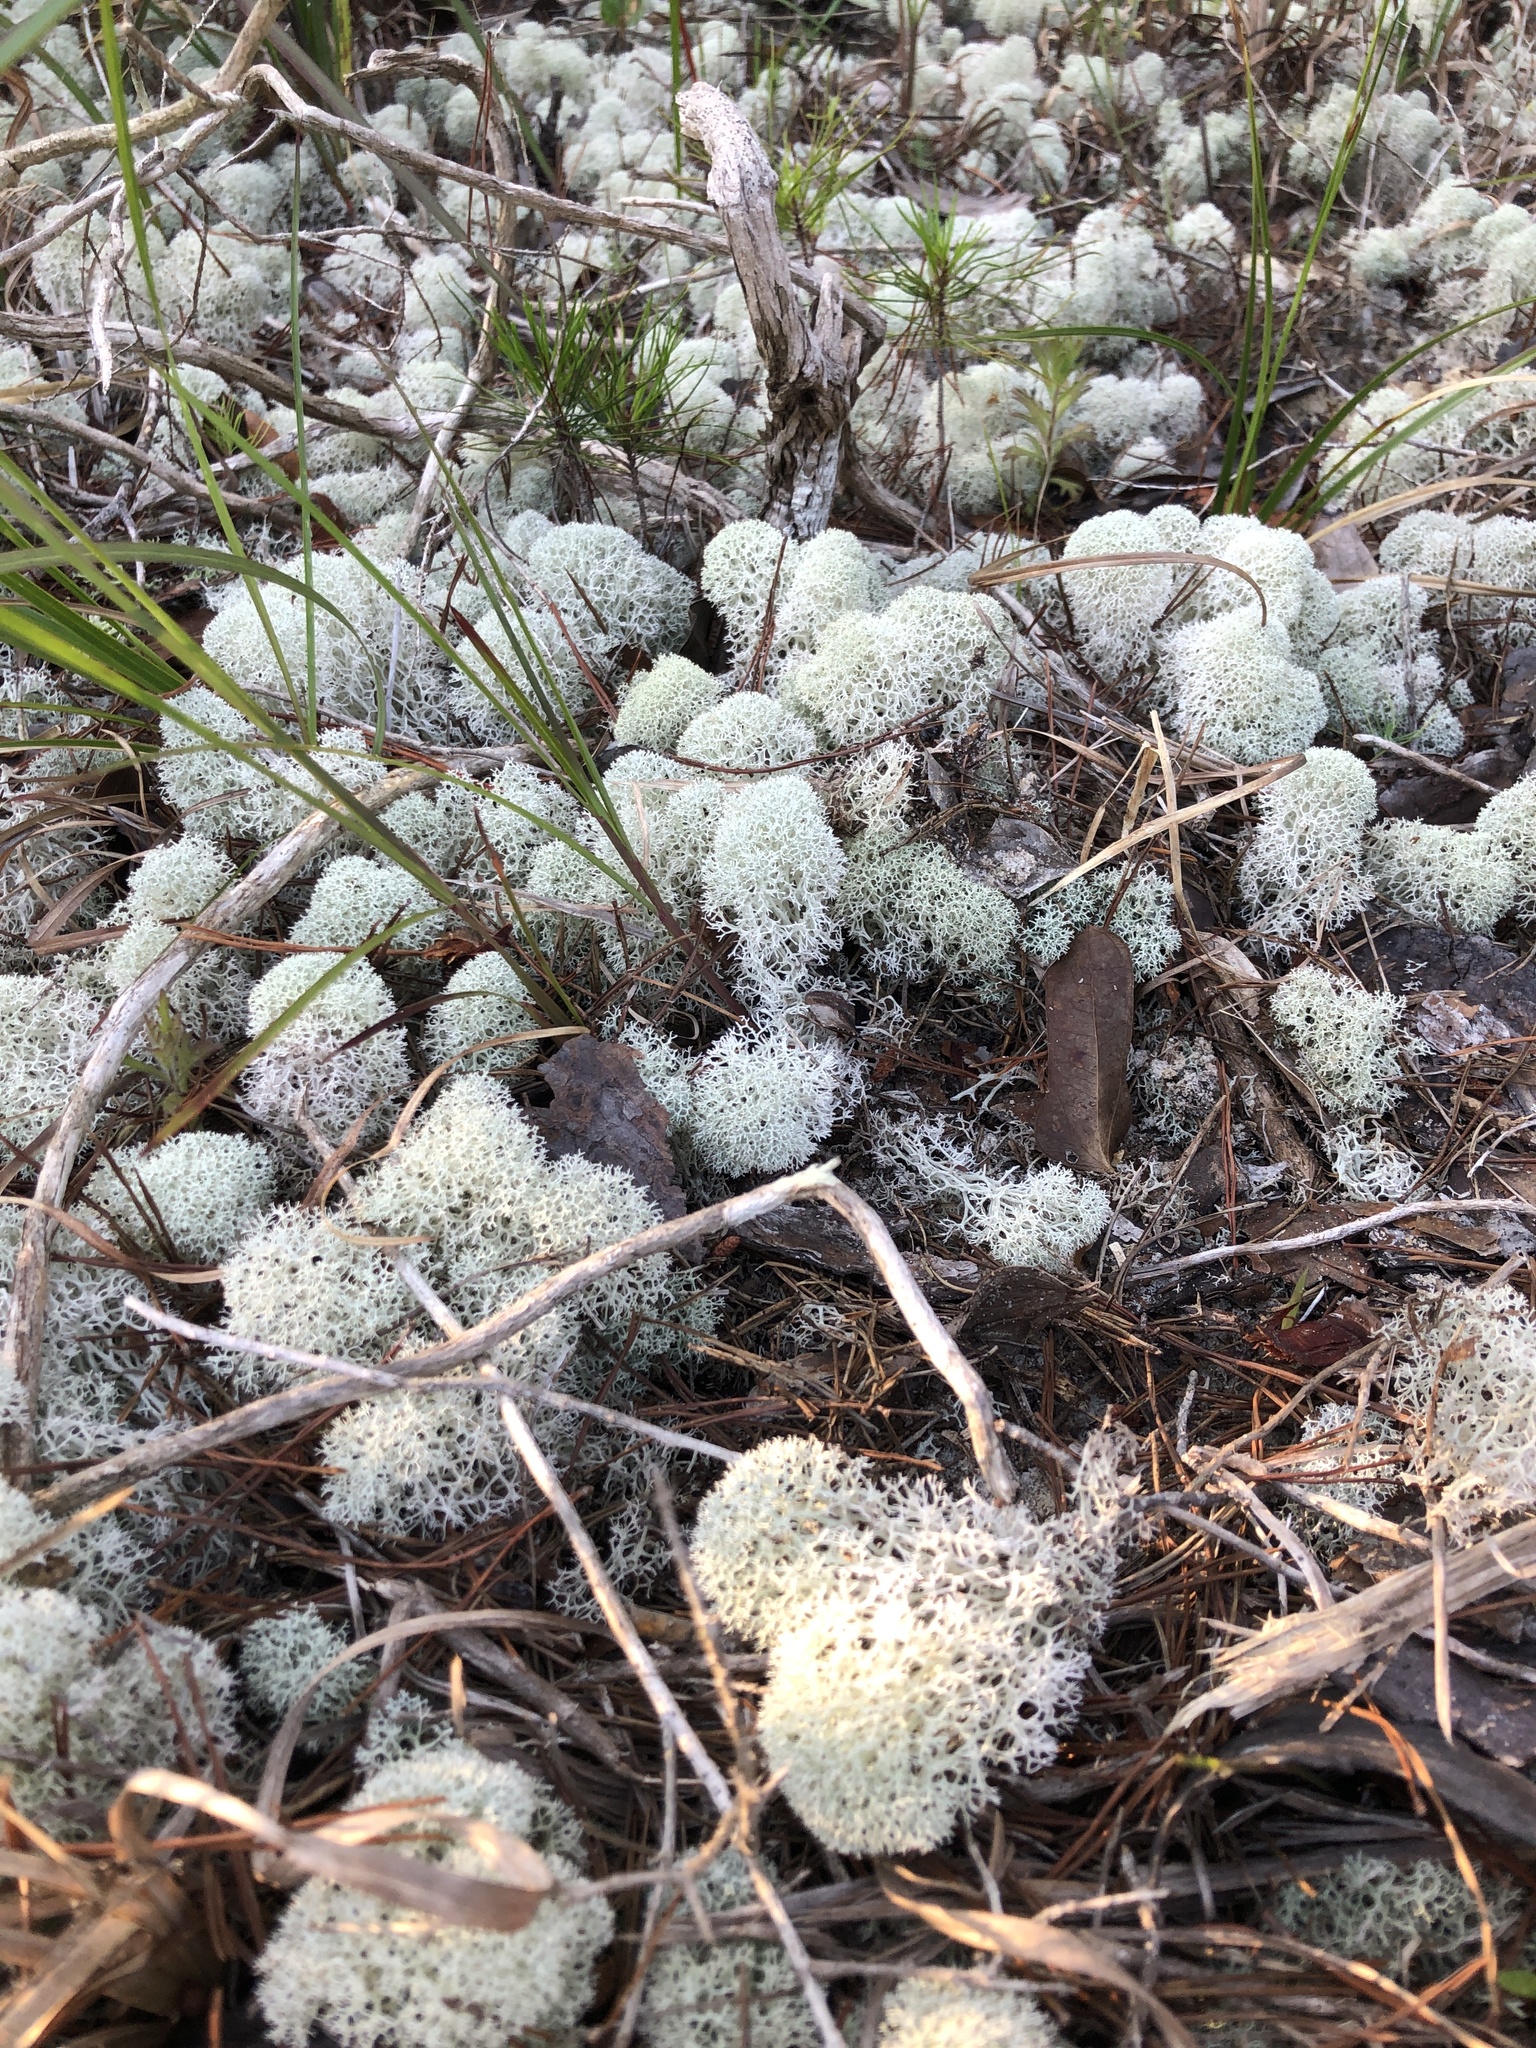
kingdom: Fungi
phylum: Ascomycota
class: Lecanoromycetes
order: Lecanorales
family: Cladoniaceae
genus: Cladonia
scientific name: Cladonia evansii
